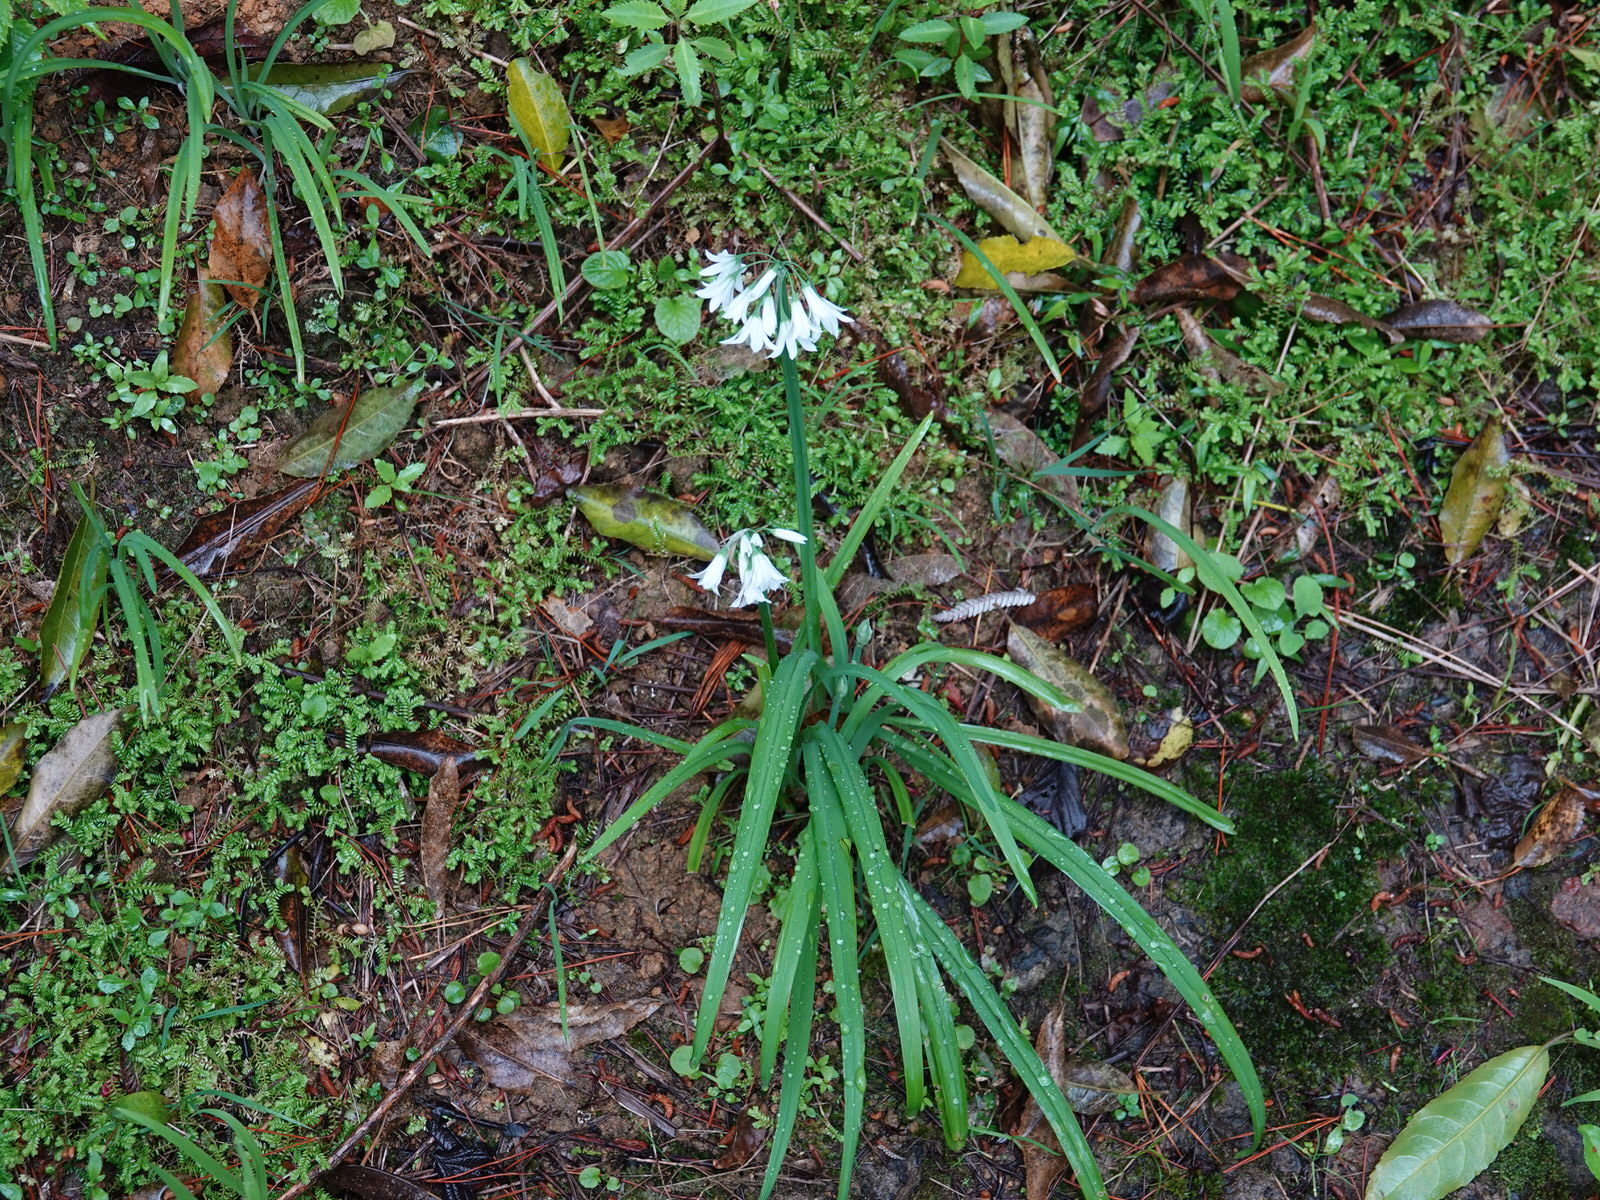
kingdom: Plantae
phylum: Tracheophyta
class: Liliopsida
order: Asparagales
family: Amaryllidaceae
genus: Allium
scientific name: Allium triquetrum
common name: Three-cornered garlic
